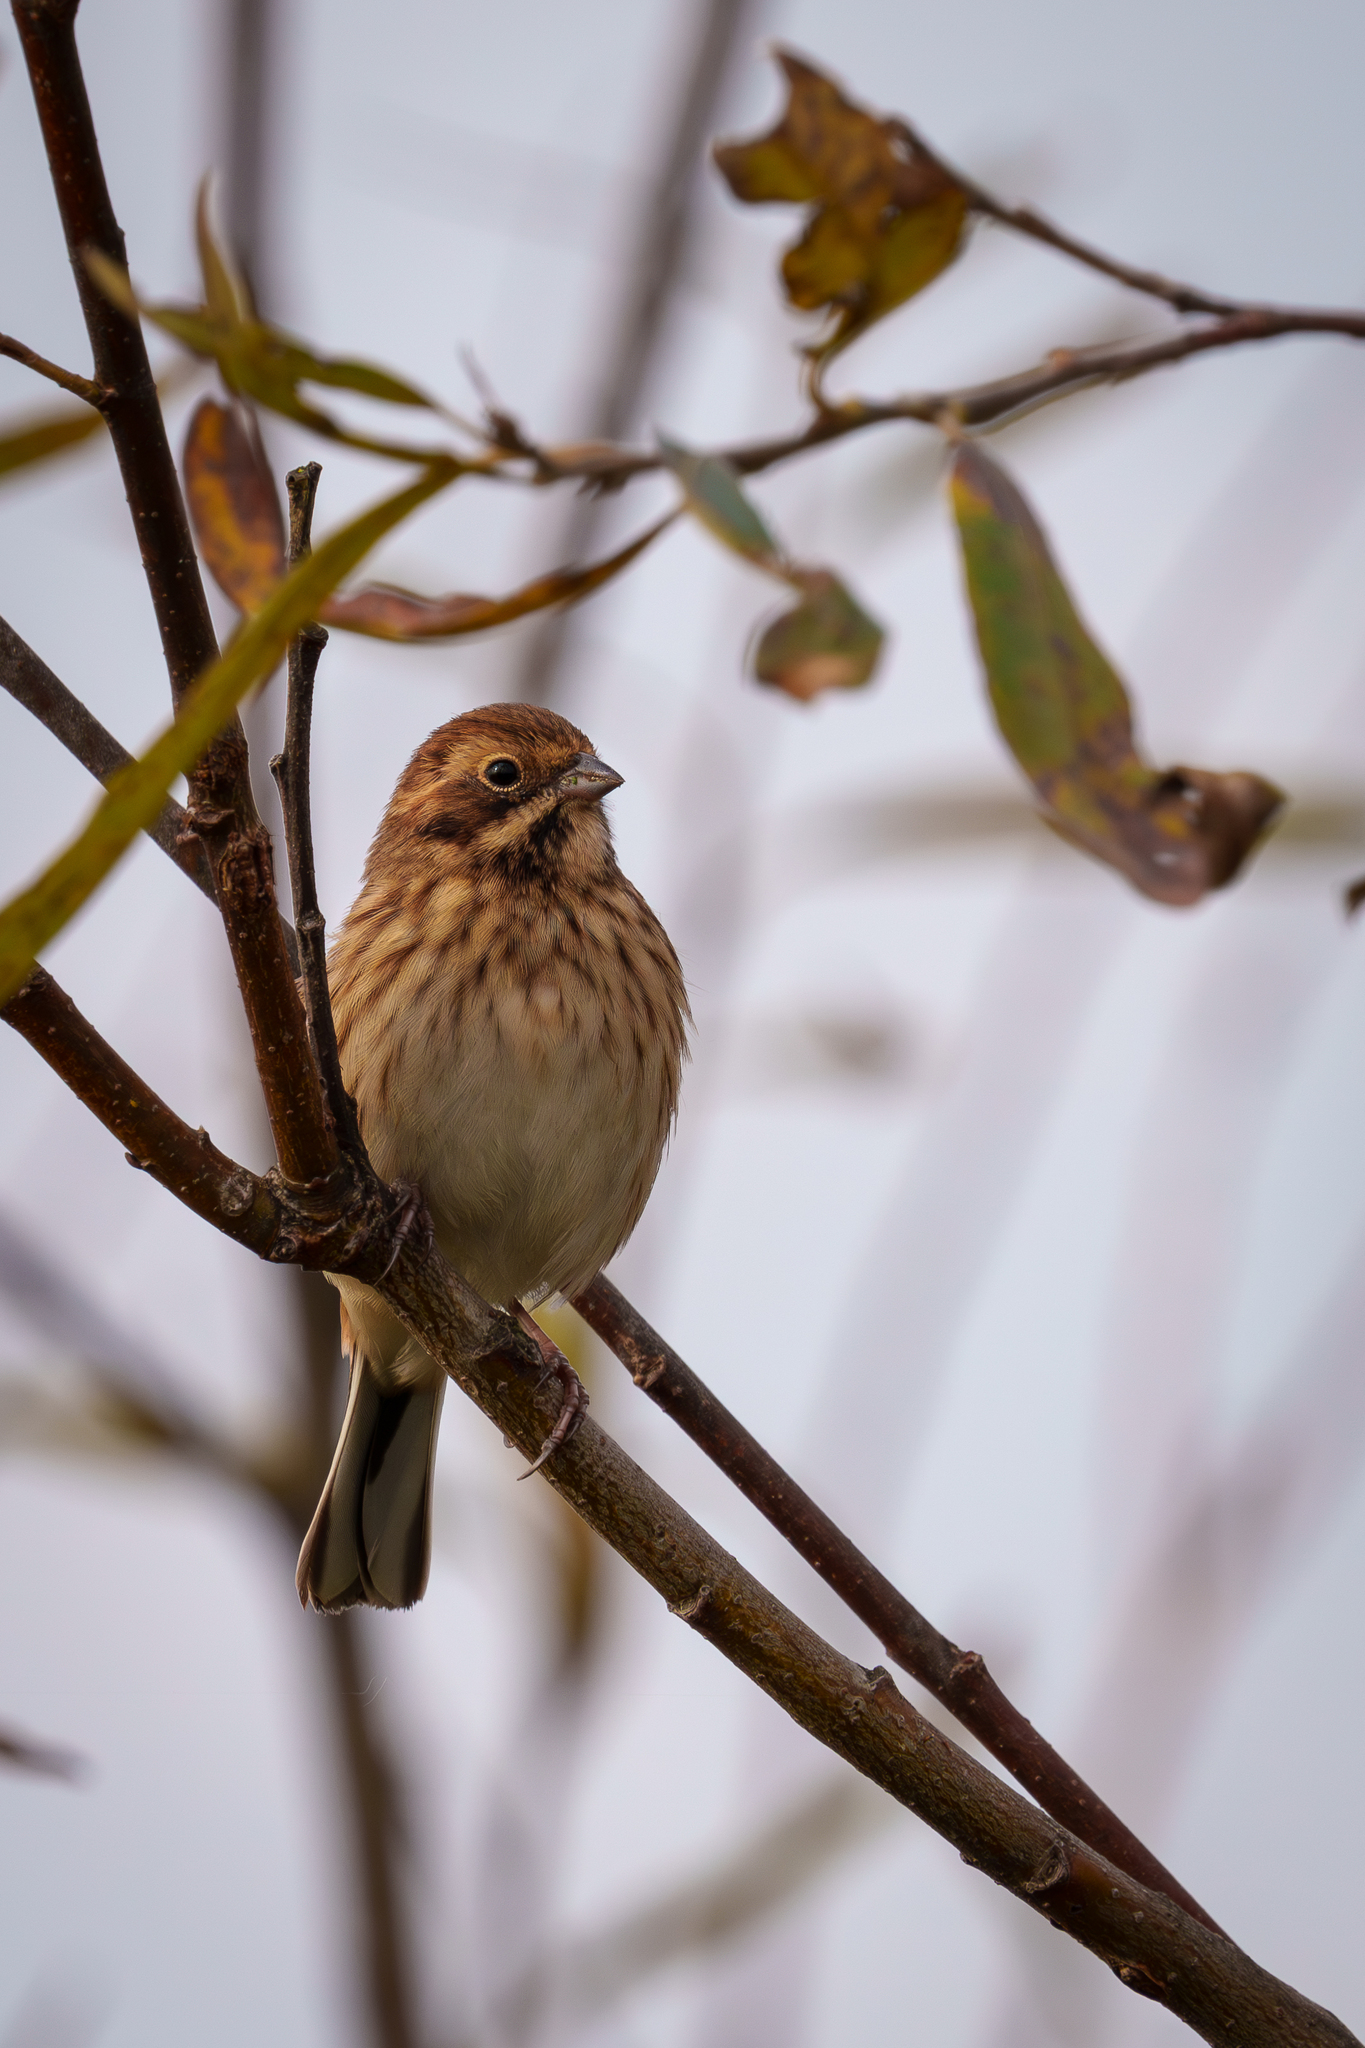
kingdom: Animalia
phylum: Chordata
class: Aves
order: Passeriformes
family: Emberizidae
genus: Emberiza
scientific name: Emberiza schoeniclus
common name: Reed bunting
